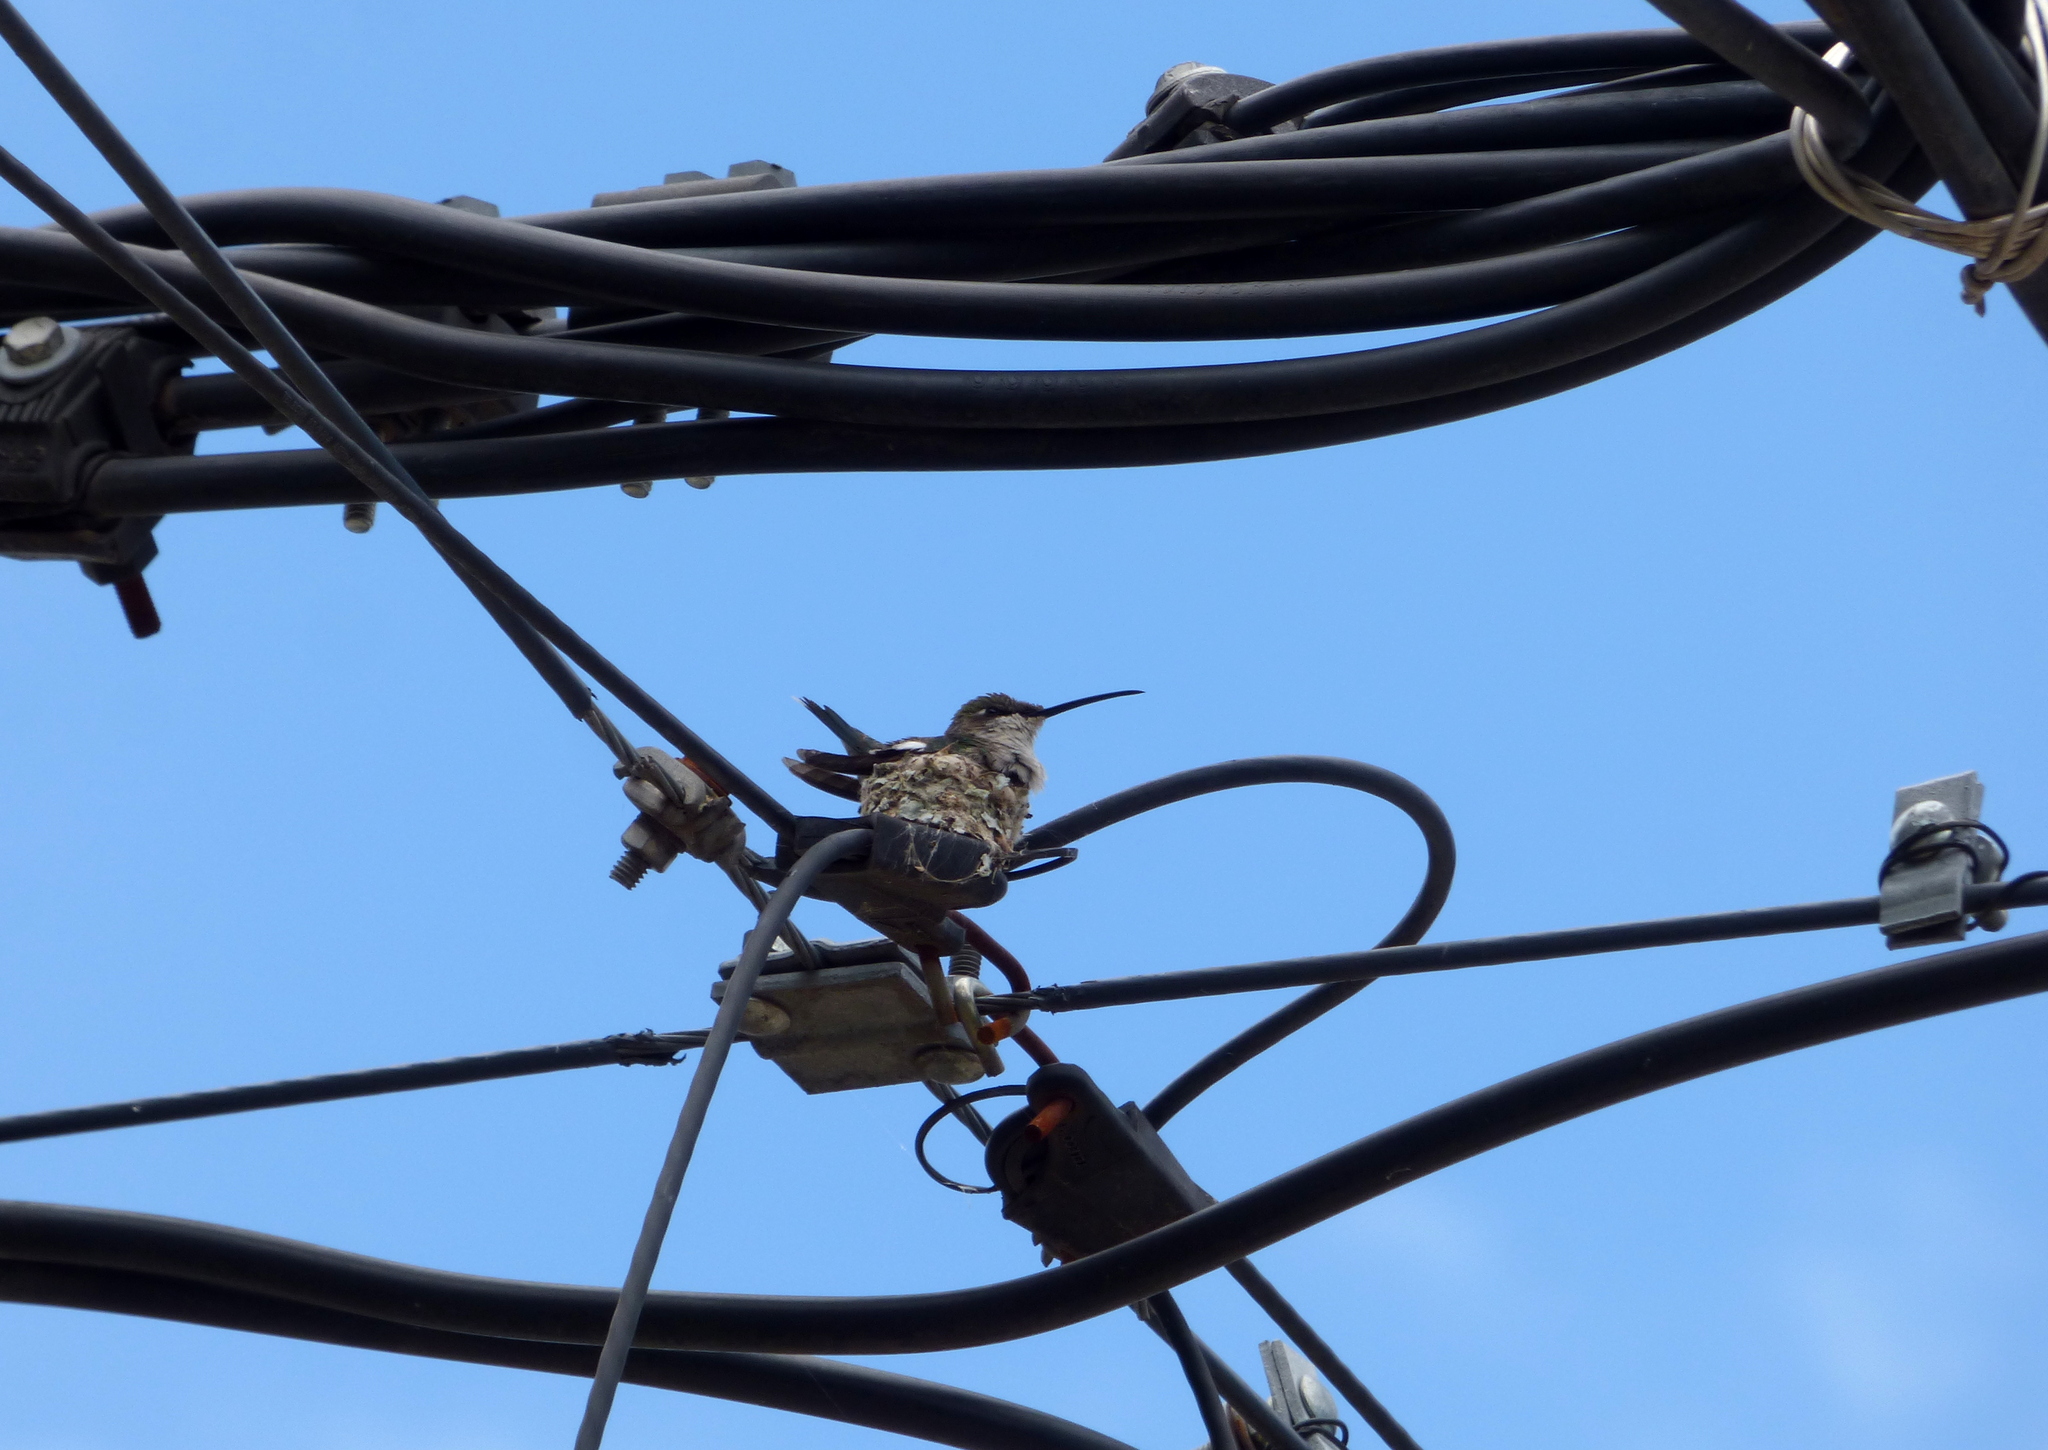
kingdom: Animalia
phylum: Chordata
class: Aves
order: Apodiformes
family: Trochilidae
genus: Heliomaster
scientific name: Heliomaster furcifer
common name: Blue-tufted starthroat
